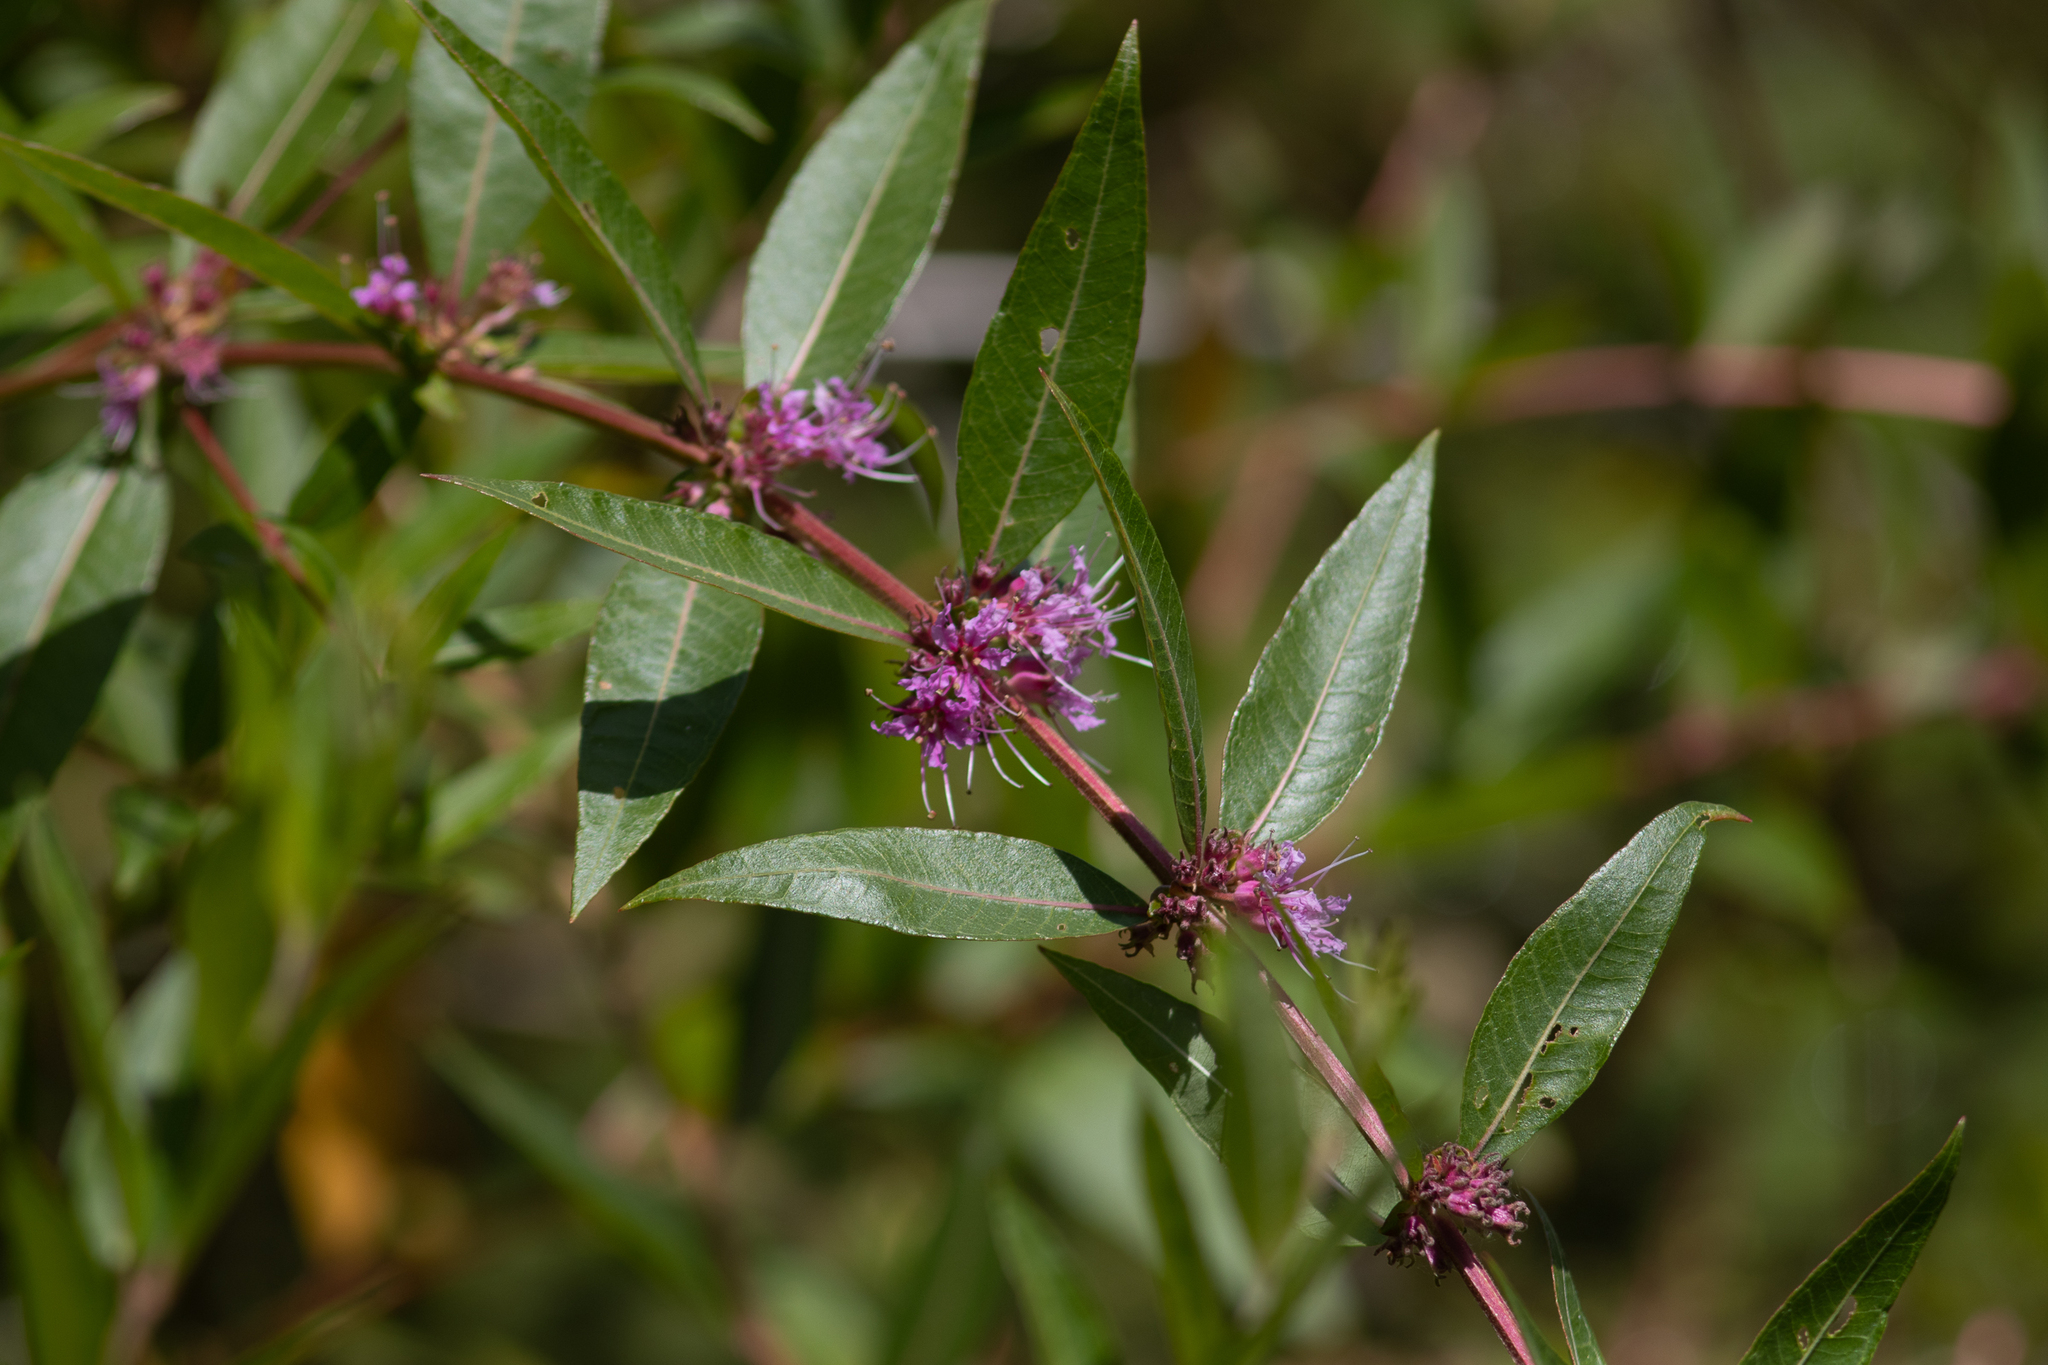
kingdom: Plantae
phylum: Tracheophyta
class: Magnoliopsida
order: Myrtales
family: Lythraceae
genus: Decodon
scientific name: Decodon verticillatus
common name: Hairy swamp loosestrife
